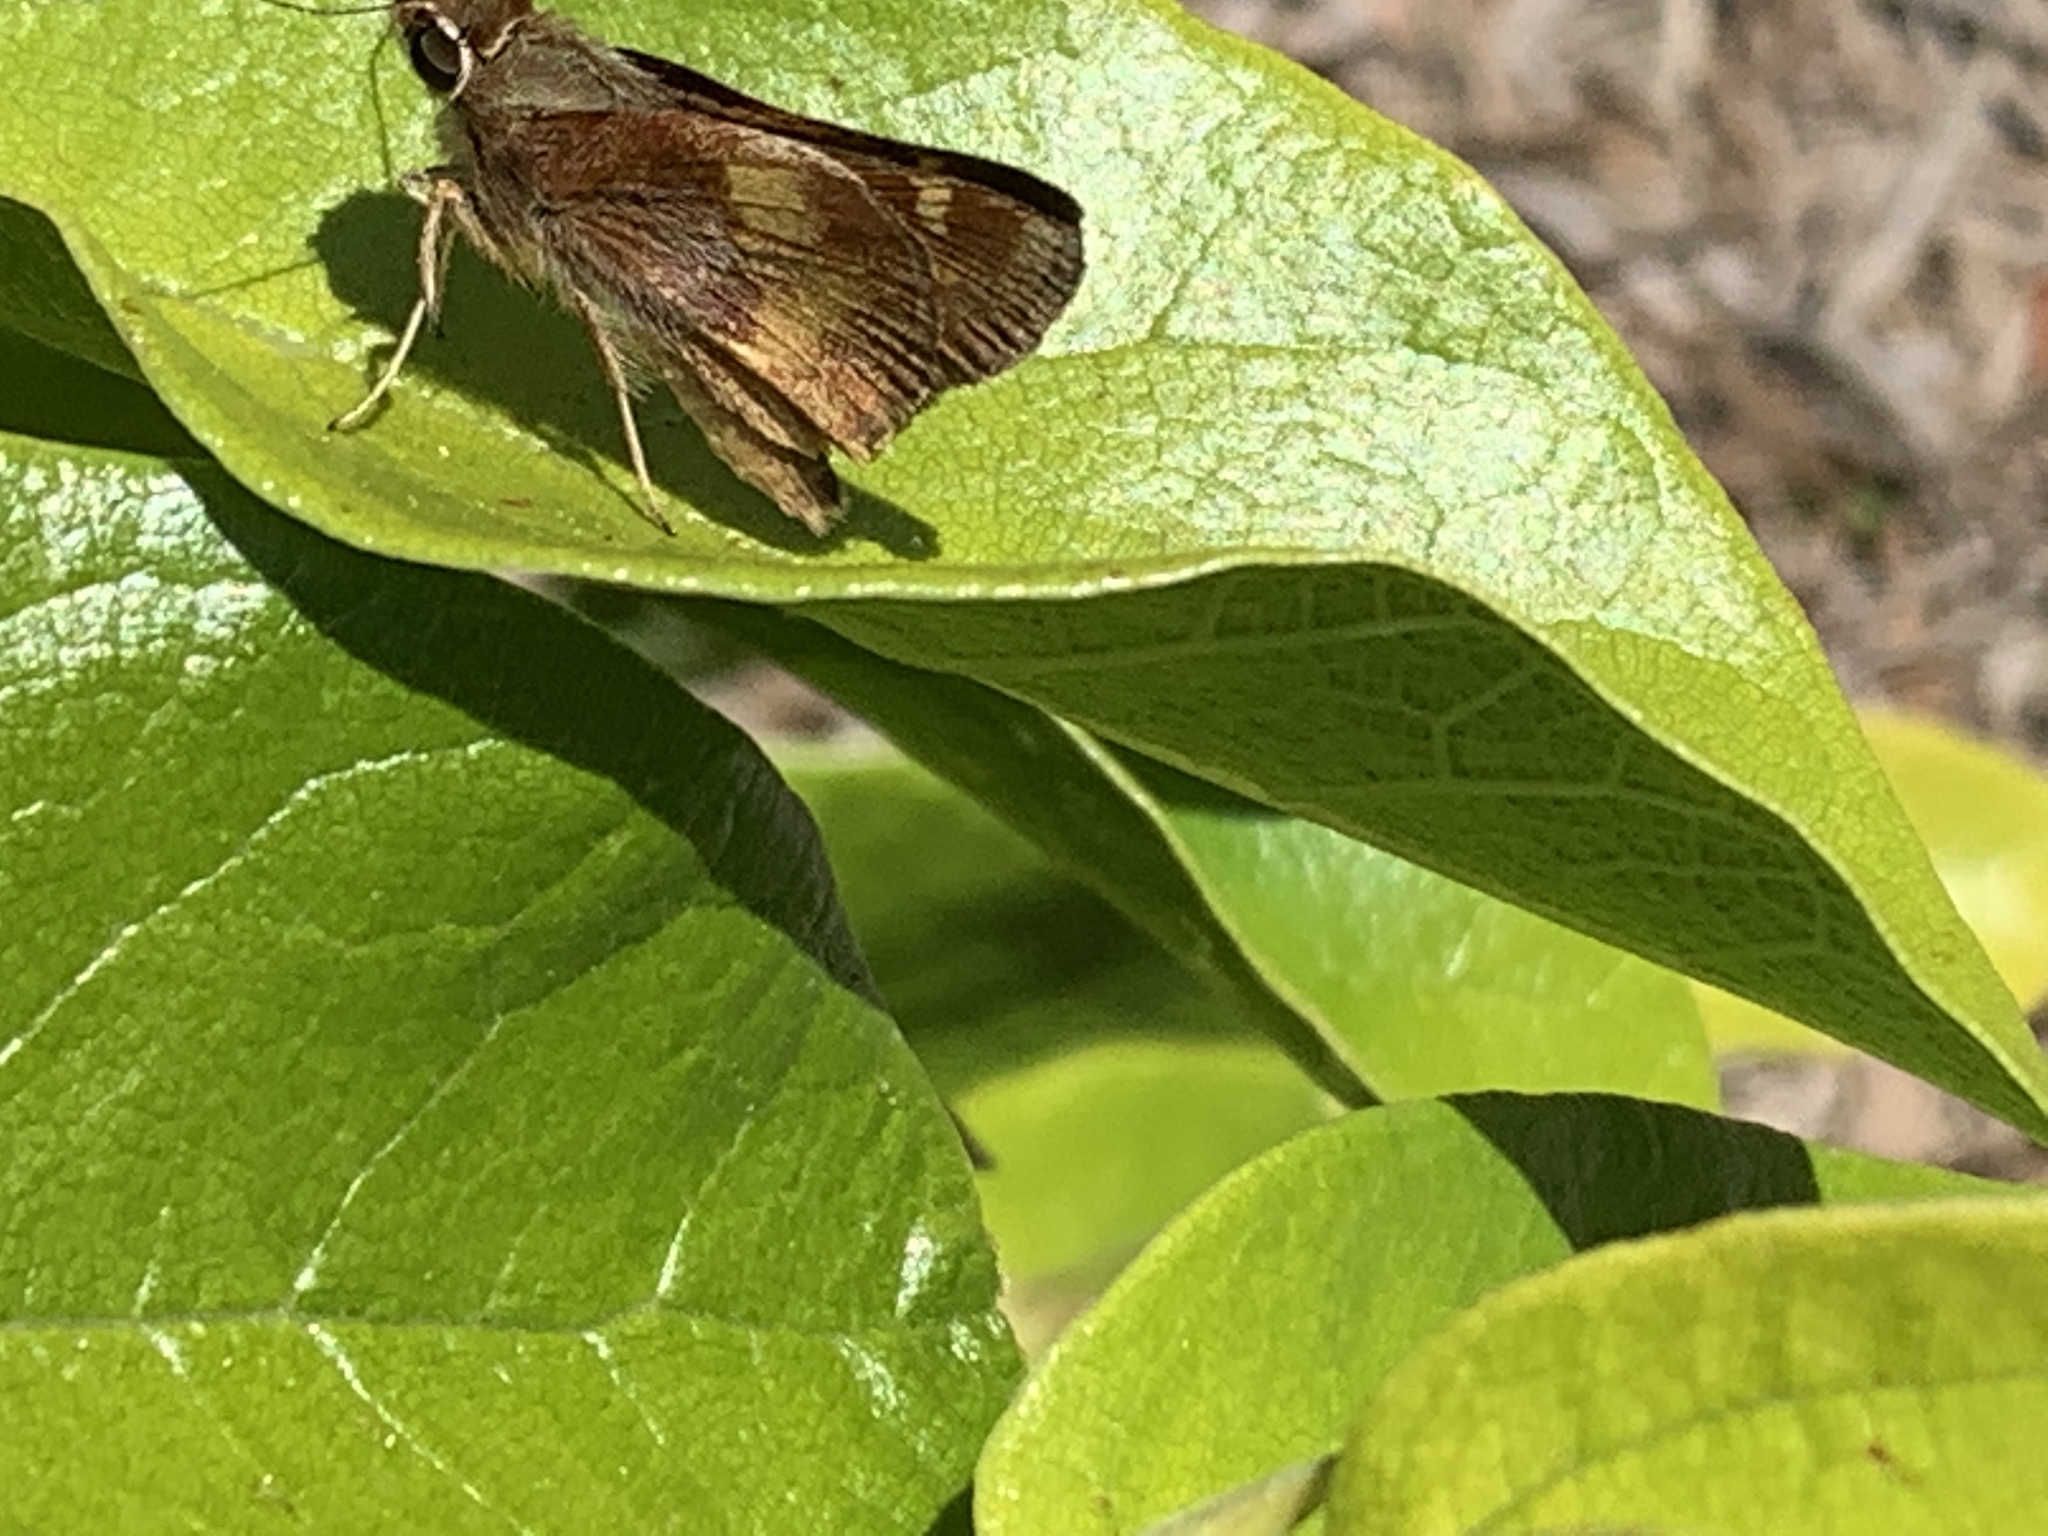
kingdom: Animalia
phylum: Arthropoda
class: Insecta
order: Lepidoptera
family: Hesperiidae
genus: Lon
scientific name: Lon melane
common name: Umber skipper
